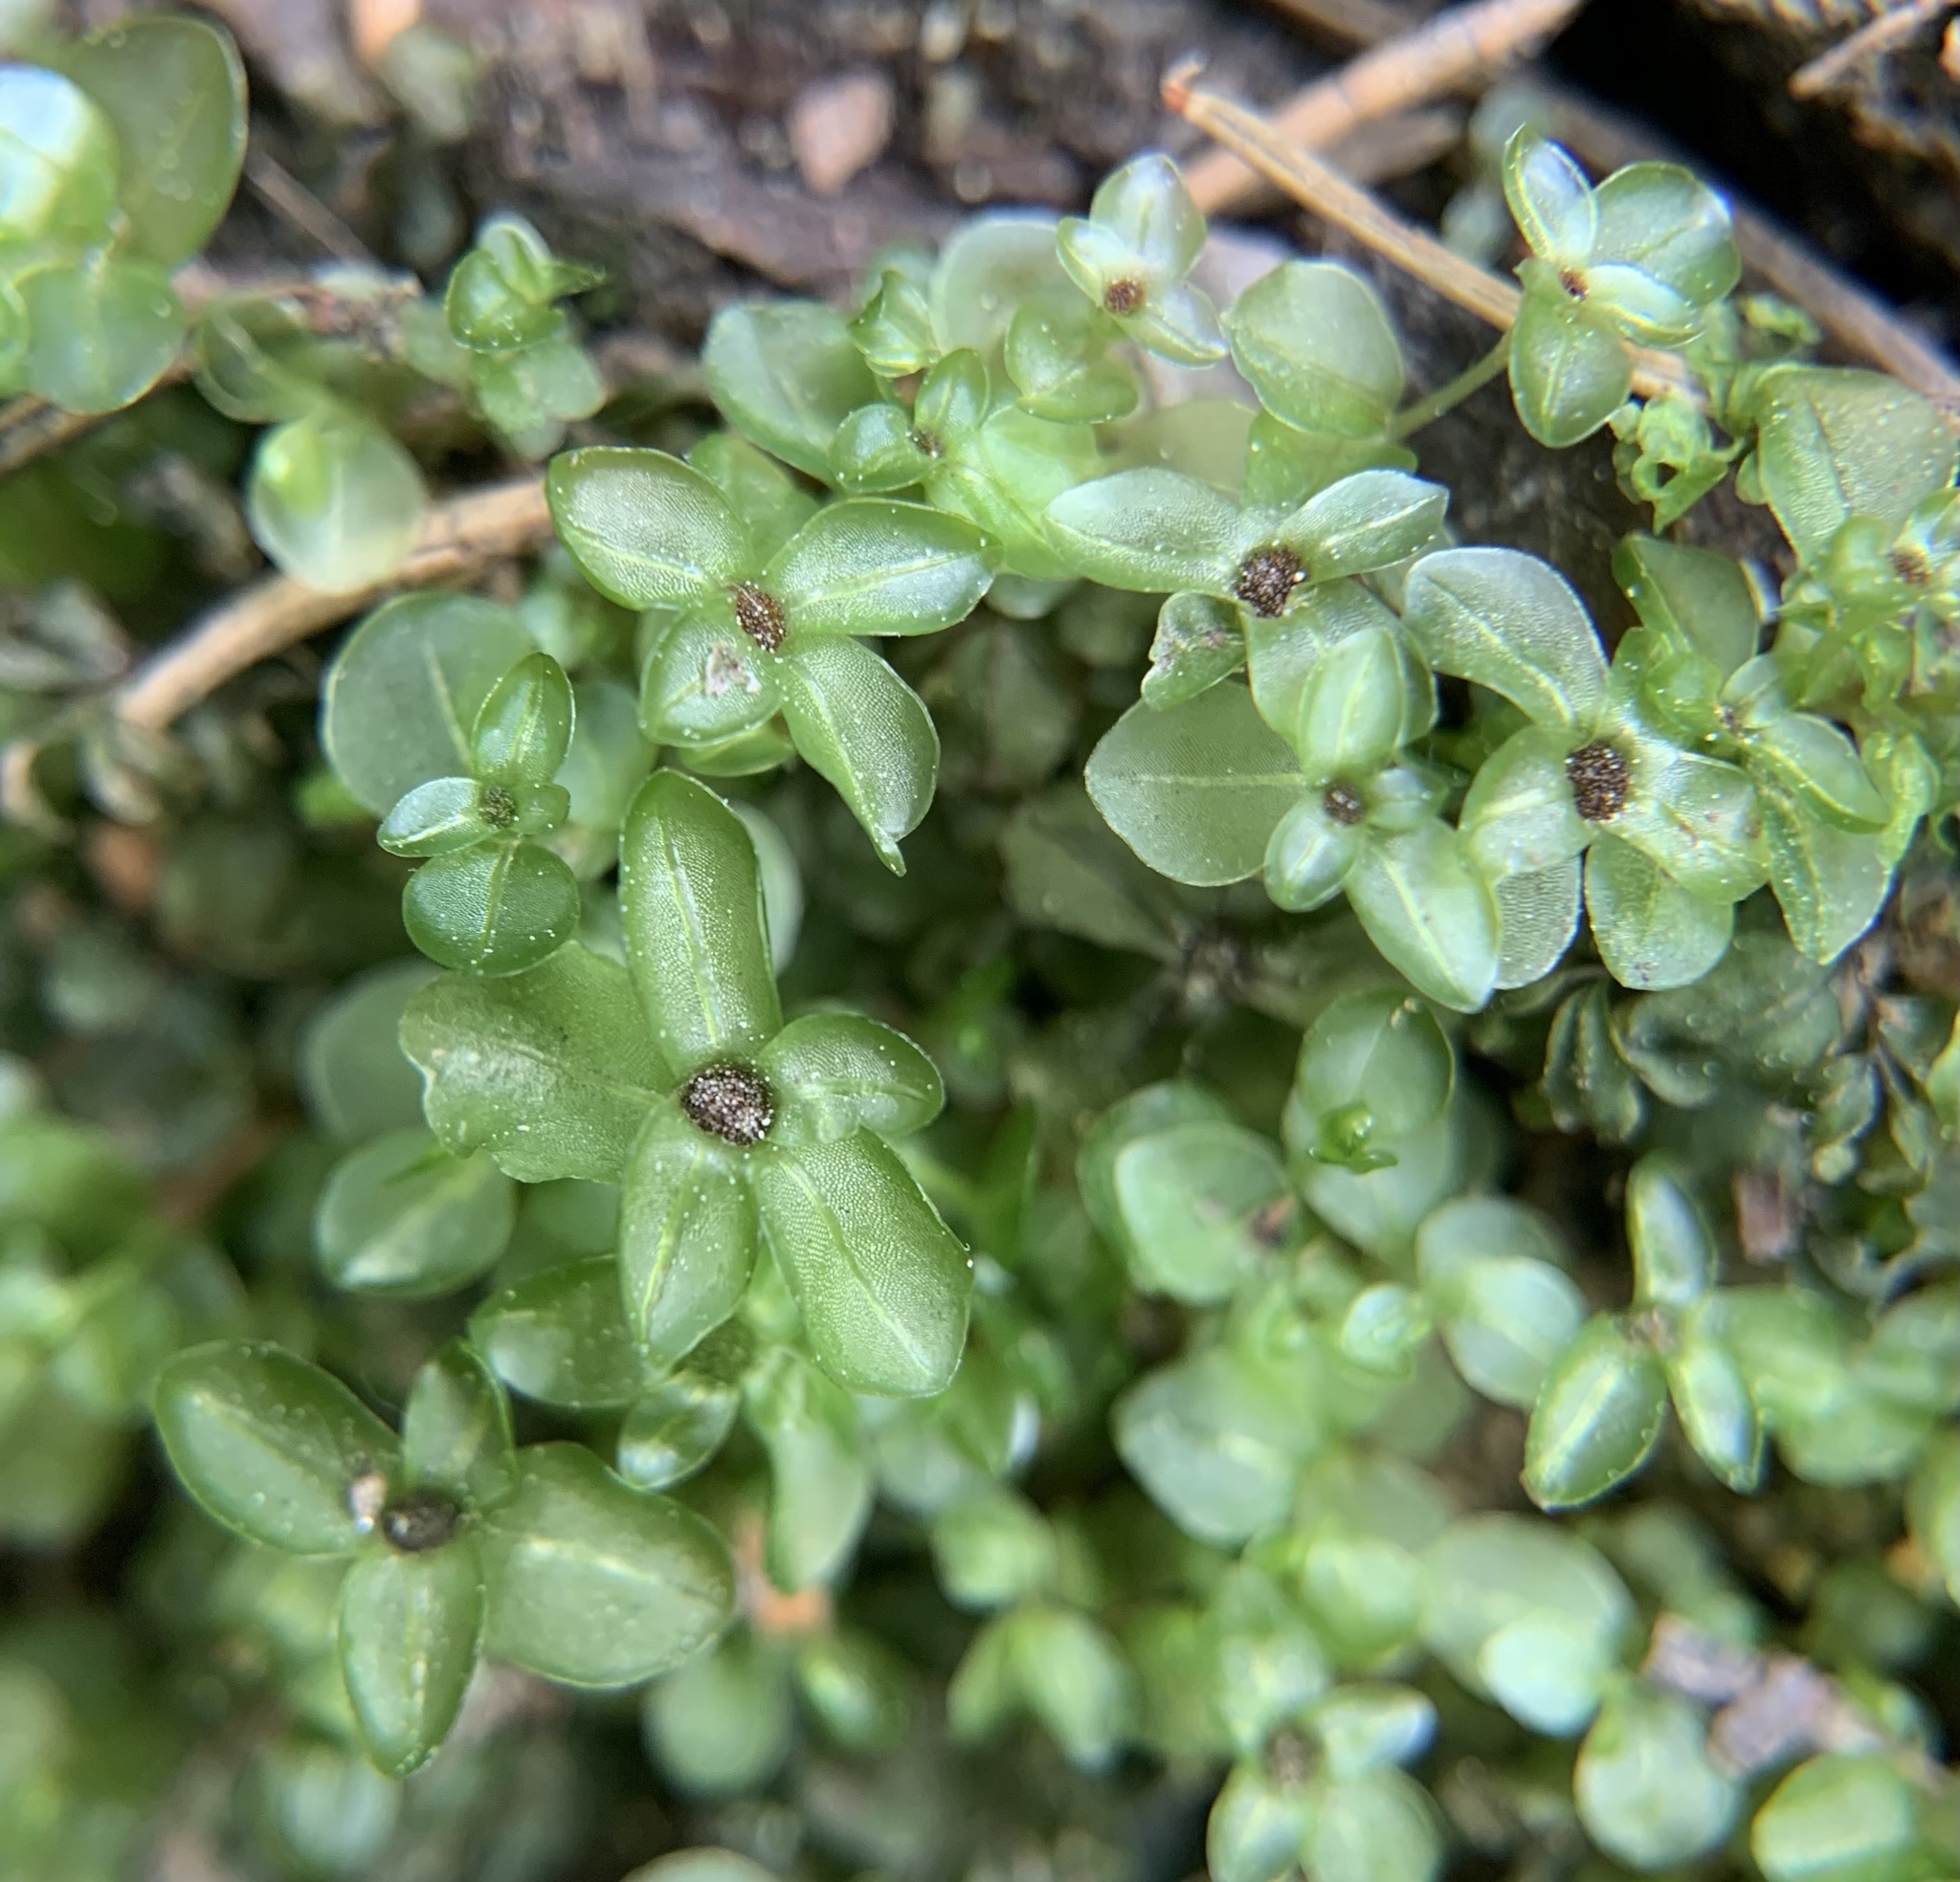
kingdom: Plantae
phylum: Bryophyta
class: Bryopsida
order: Bryales
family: Mniaceae
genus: Rhizomnium
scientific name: Rhizomnium punctatum
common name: Dotted leafy moss
